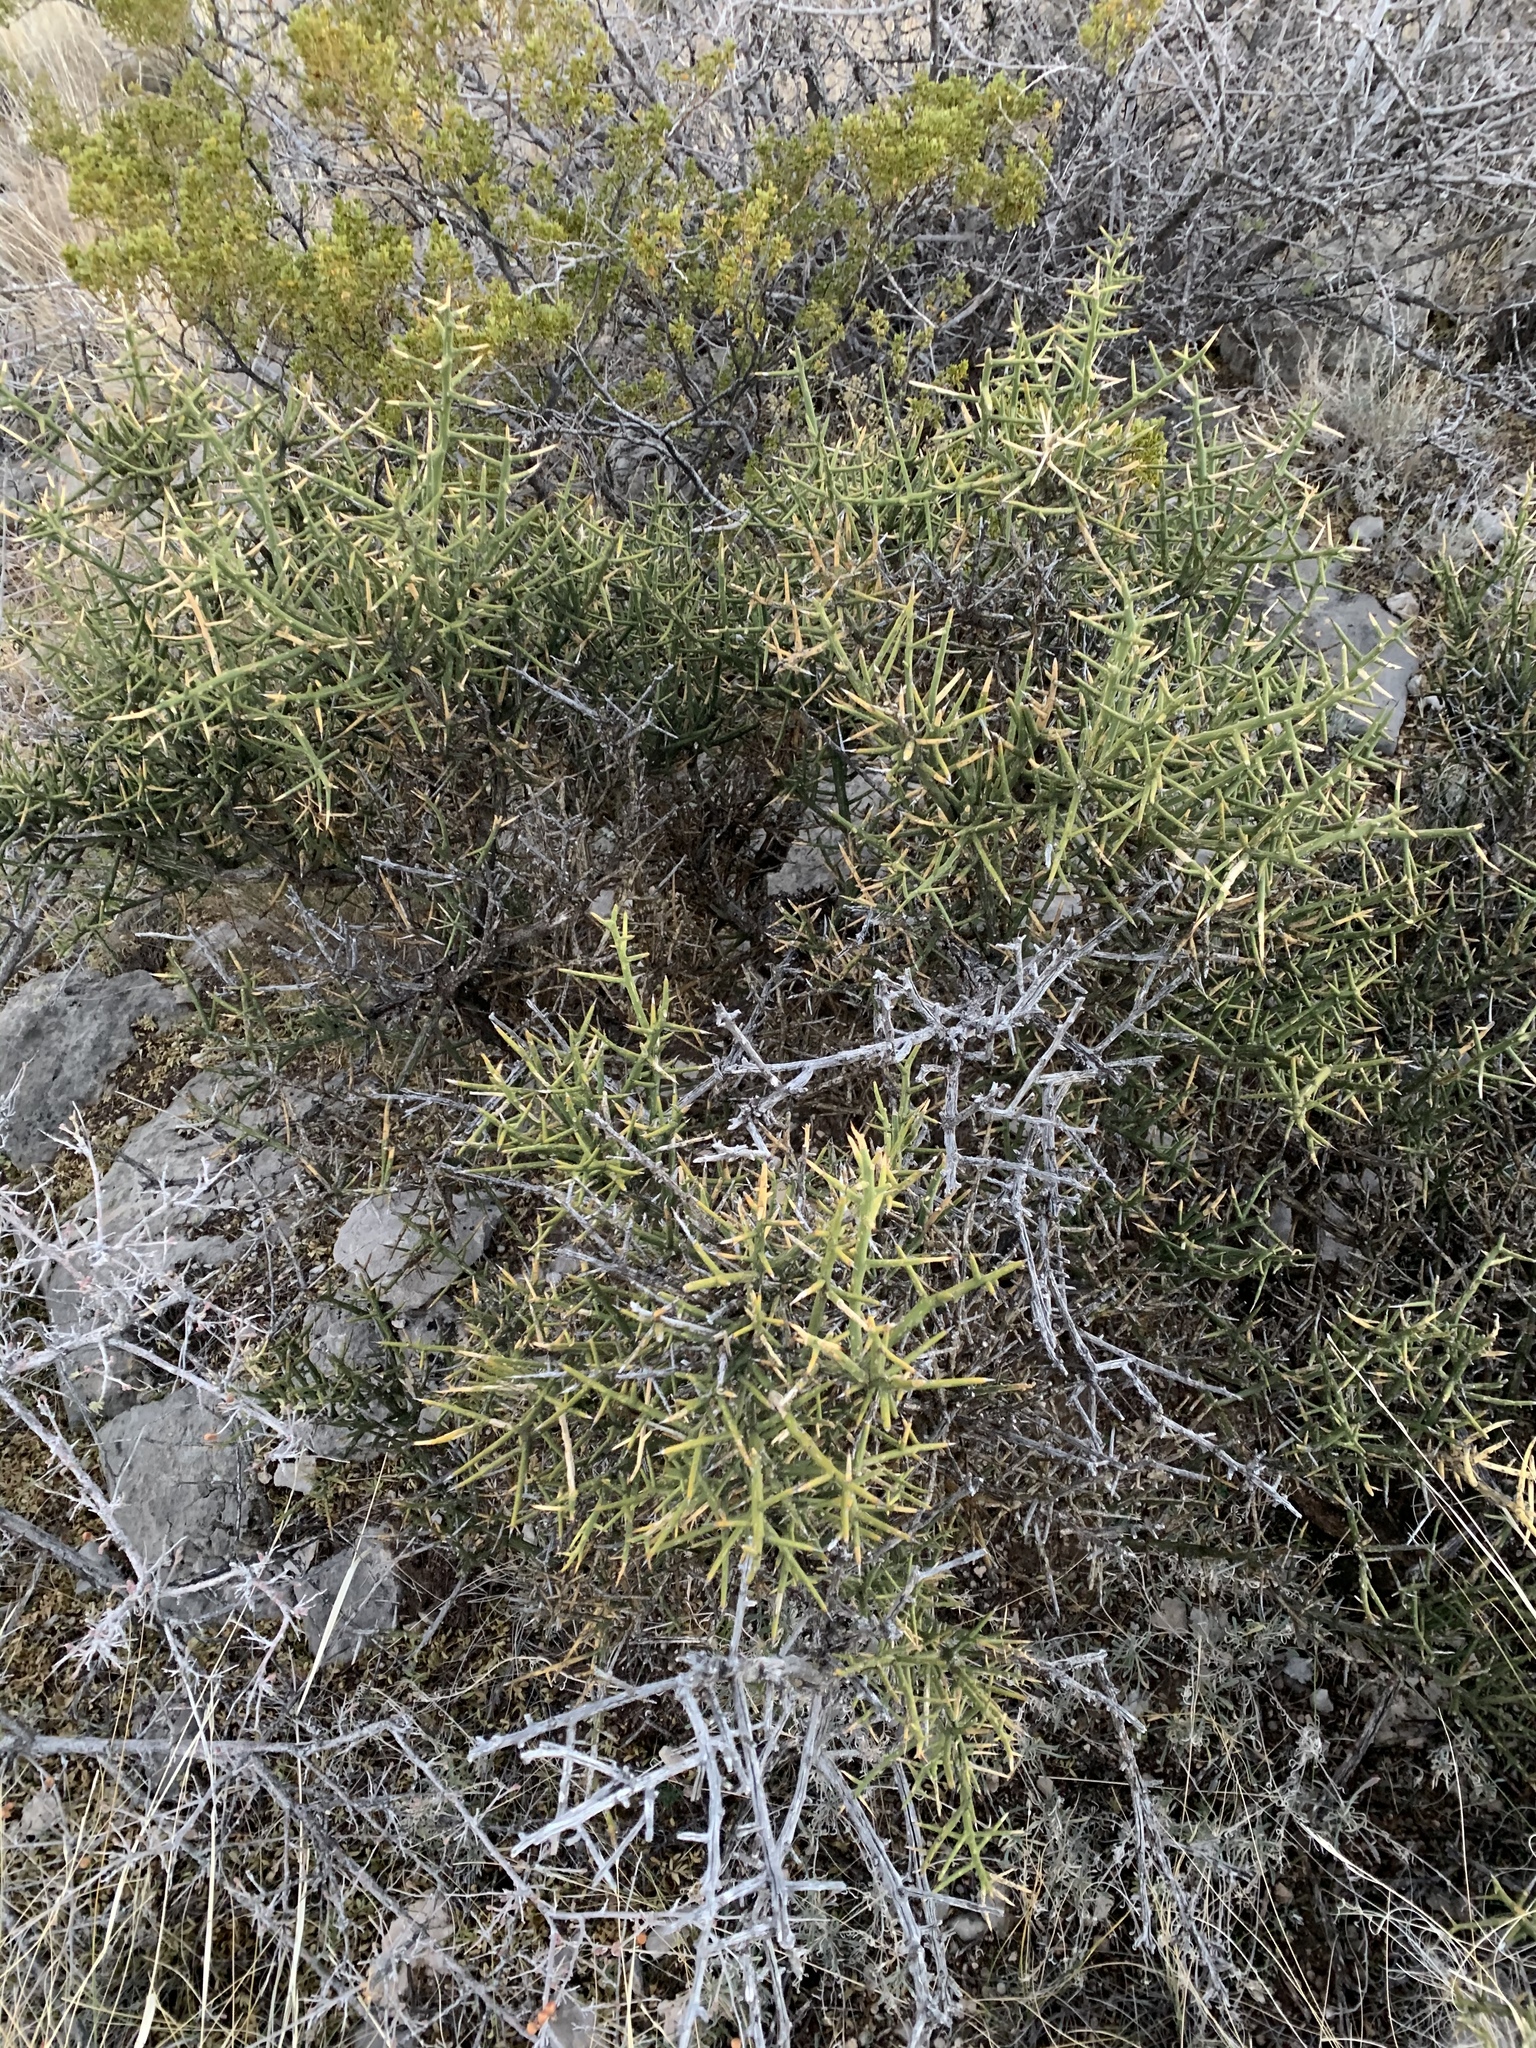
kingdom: Plantae
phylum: Tracheophyta
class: Magnoliopsida
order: Brassicales
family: Koeberliniaceae
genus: Koeberlinia
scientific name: Koeberlinia spinosa
